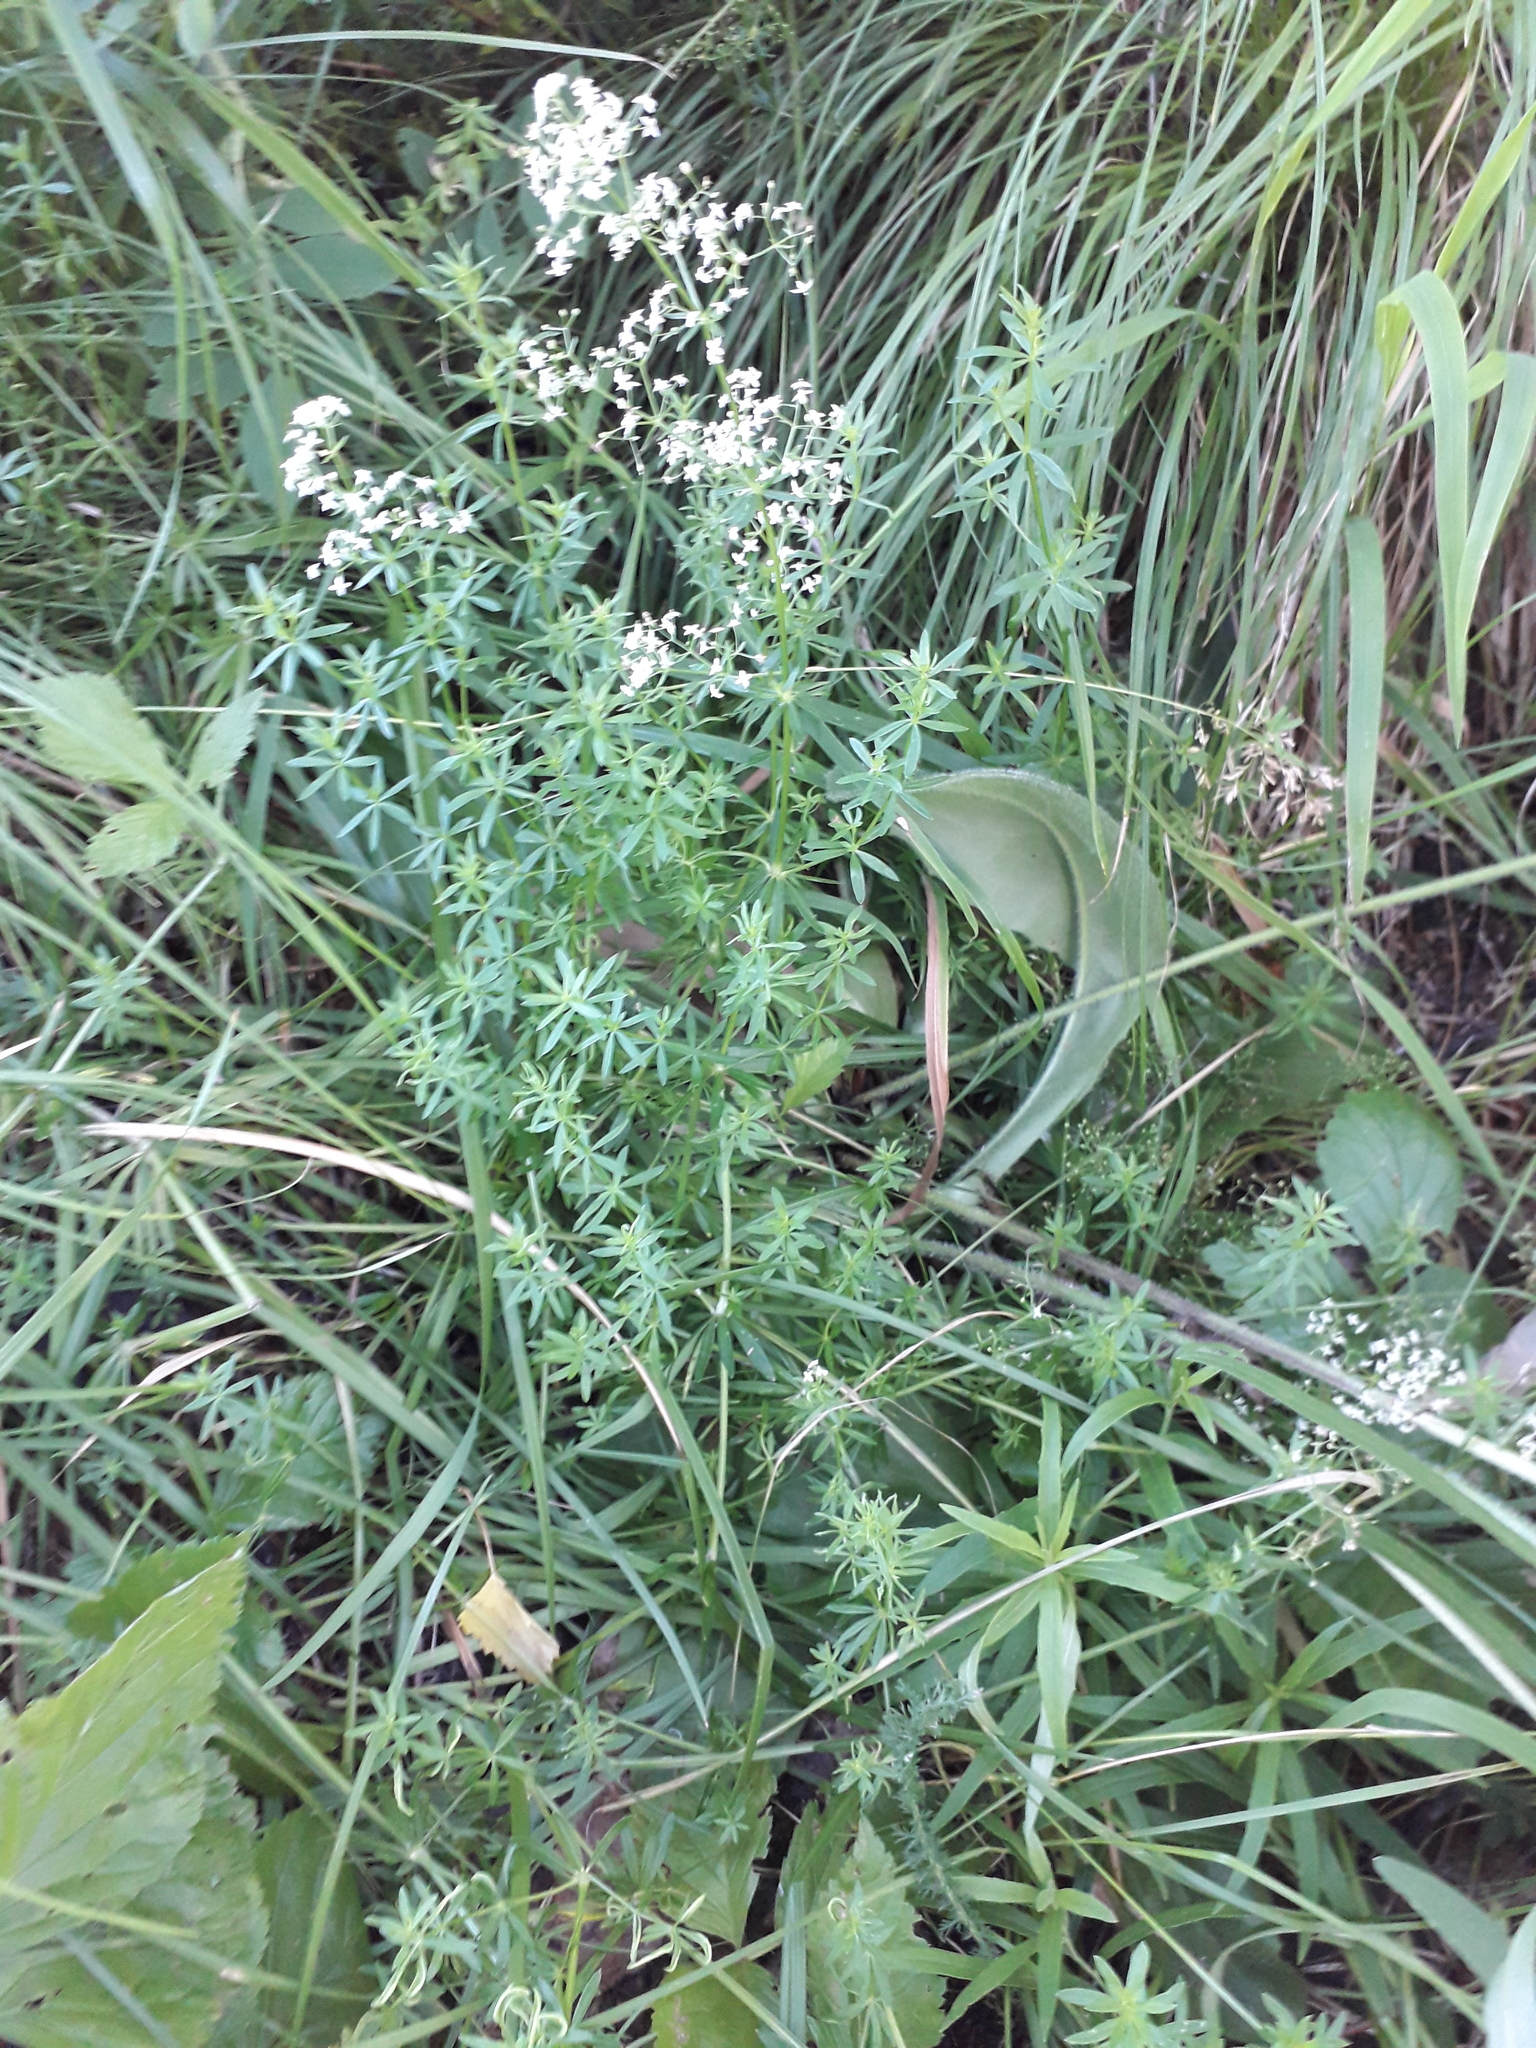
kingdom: Plantae
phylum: Tracheophyta
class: Magnoliopsida
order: Gentianales
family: Rubiaceae
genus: Galium
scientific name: Galium mollugo
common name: Hedge bedstraw
